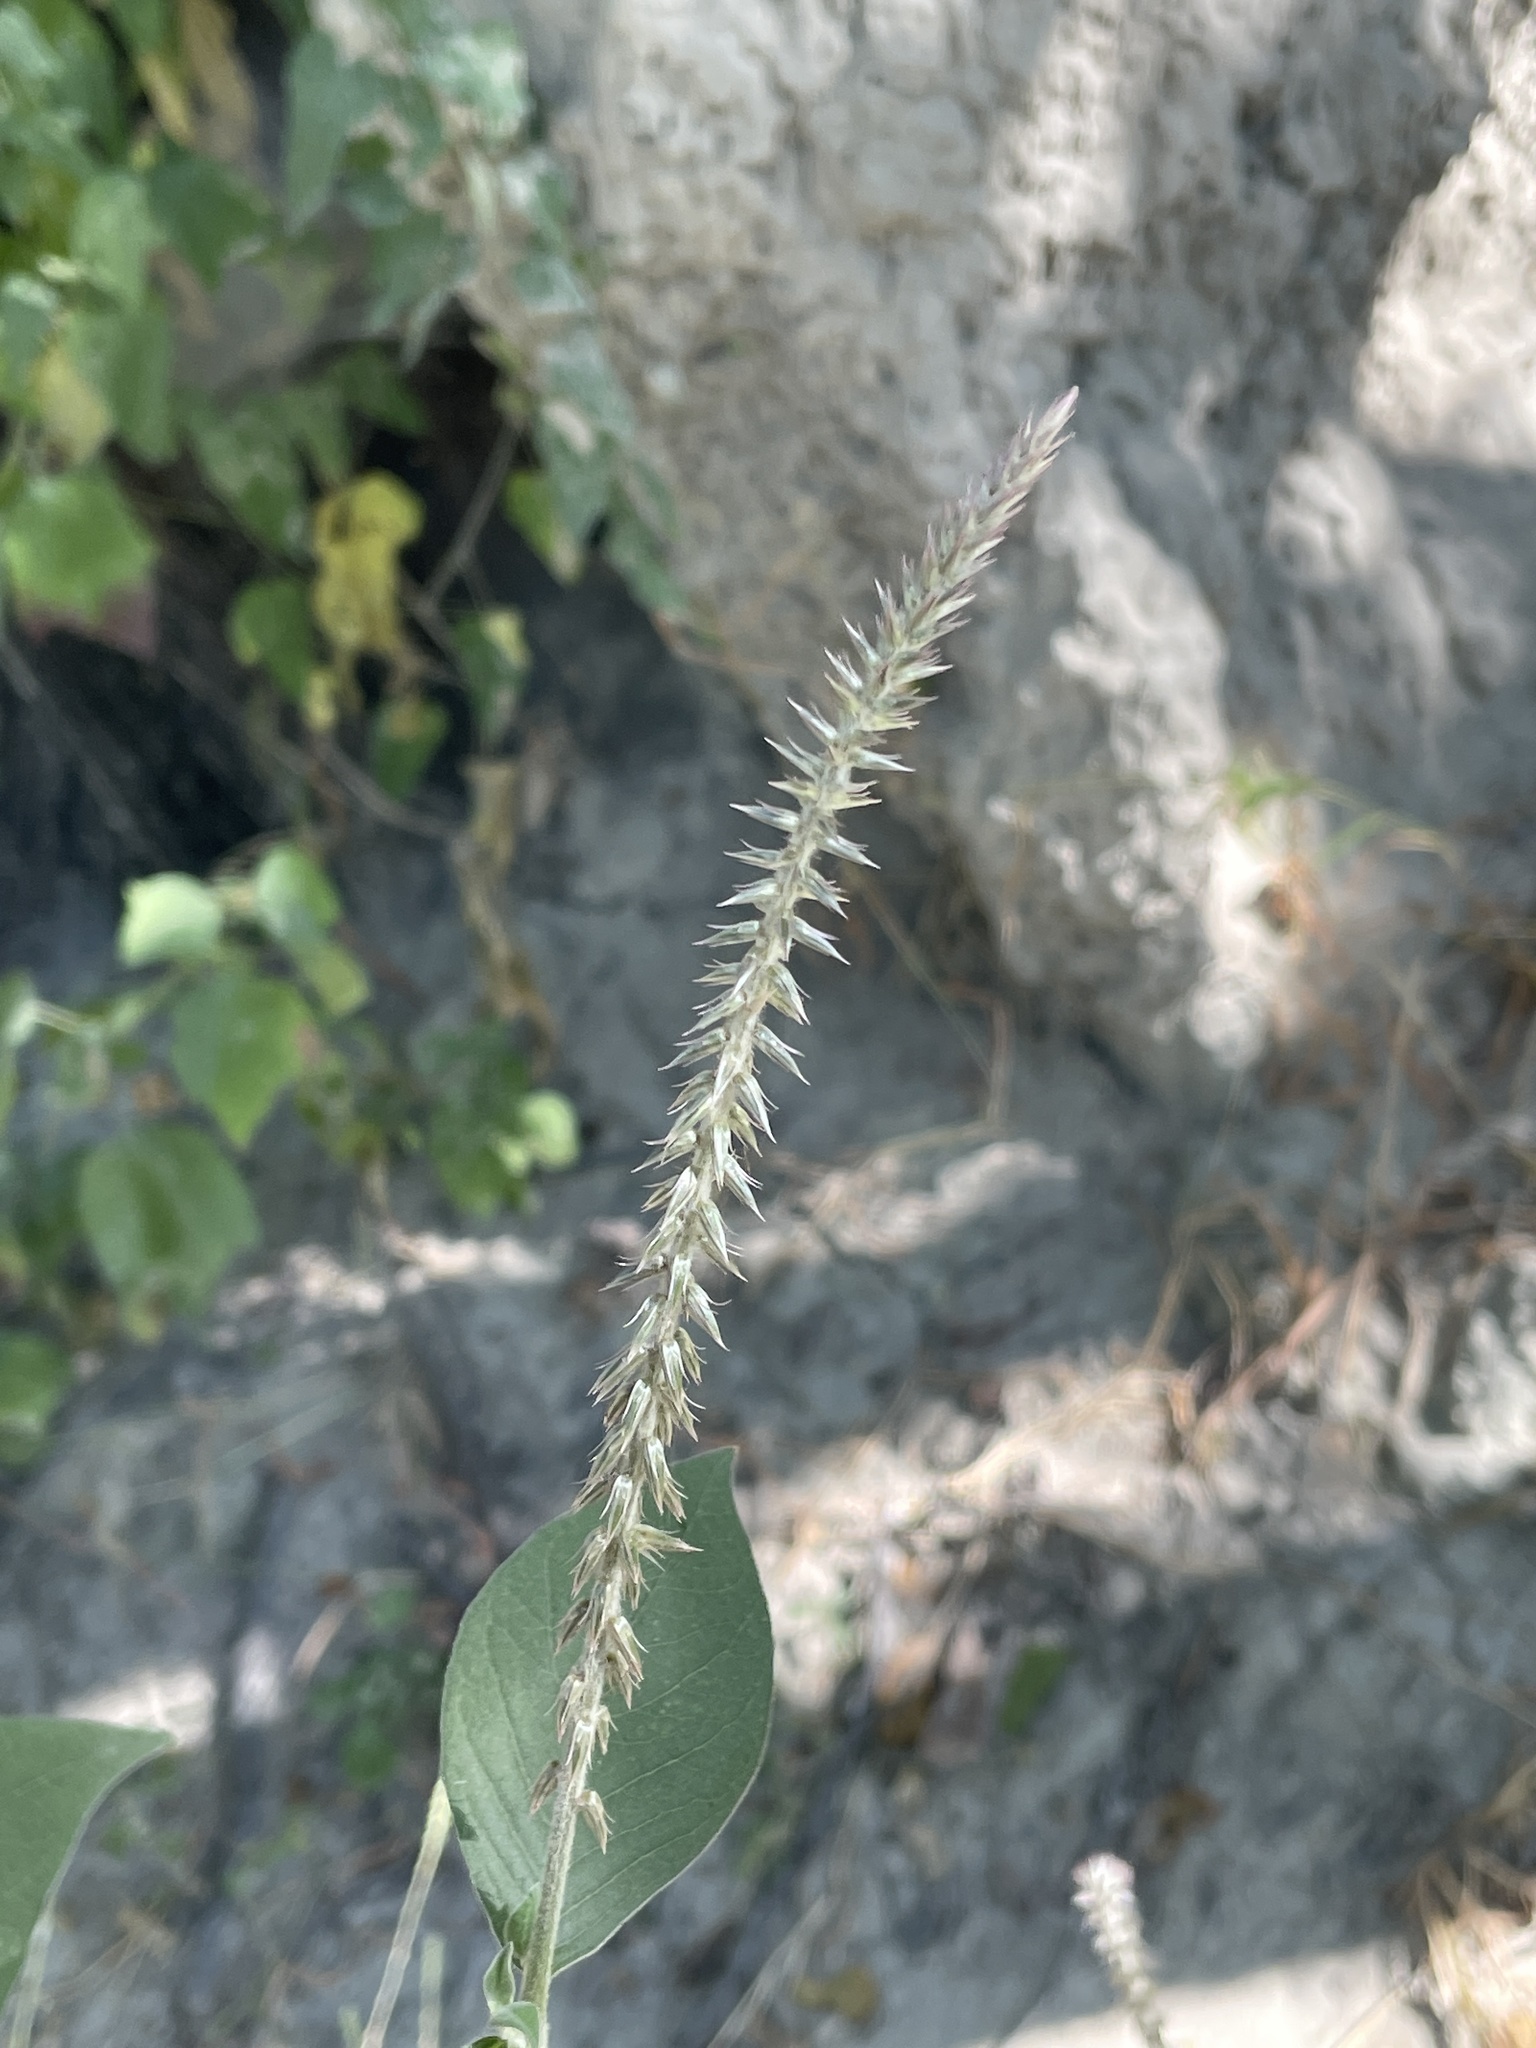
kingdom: Plantae
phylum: Tracheophyta
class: Magnoliopsida
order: Caryophyllales
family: Amaranthaceae
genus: Achyranthes
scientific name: Achyranthes aspera
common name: Devil's horsewhip
